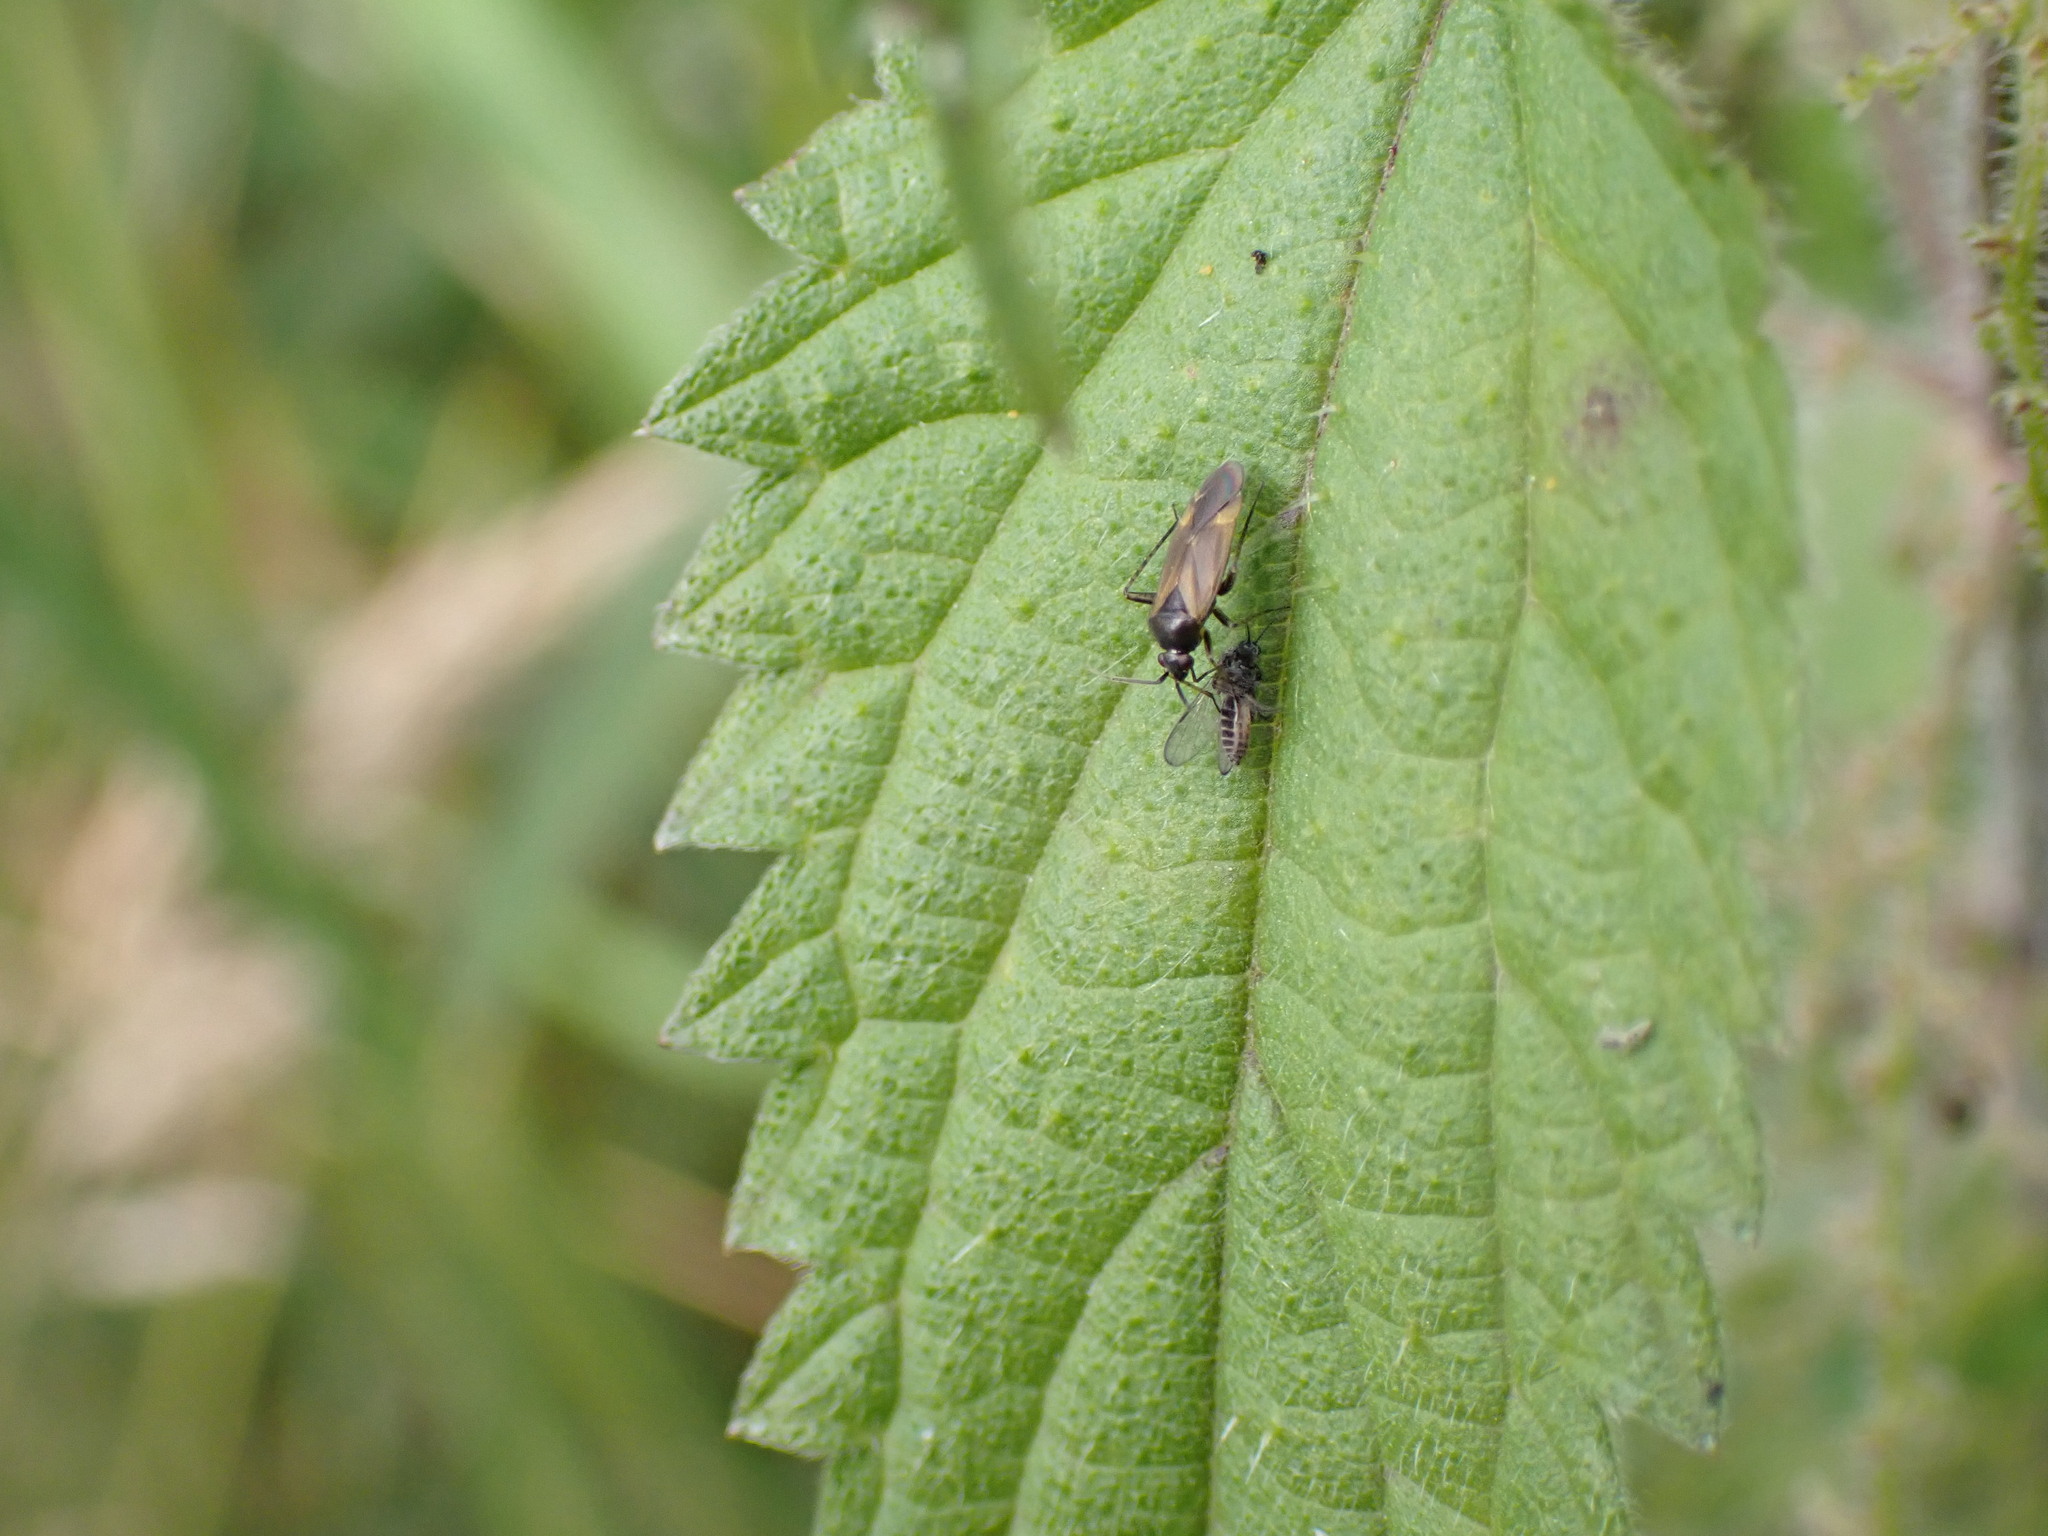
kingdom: Animalia
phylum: Arthropoda
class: Insecta
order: Hemiptera
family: Miridae
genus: Plagiognathus
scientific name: Plagiognathus arbustorum
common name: Plant bug
